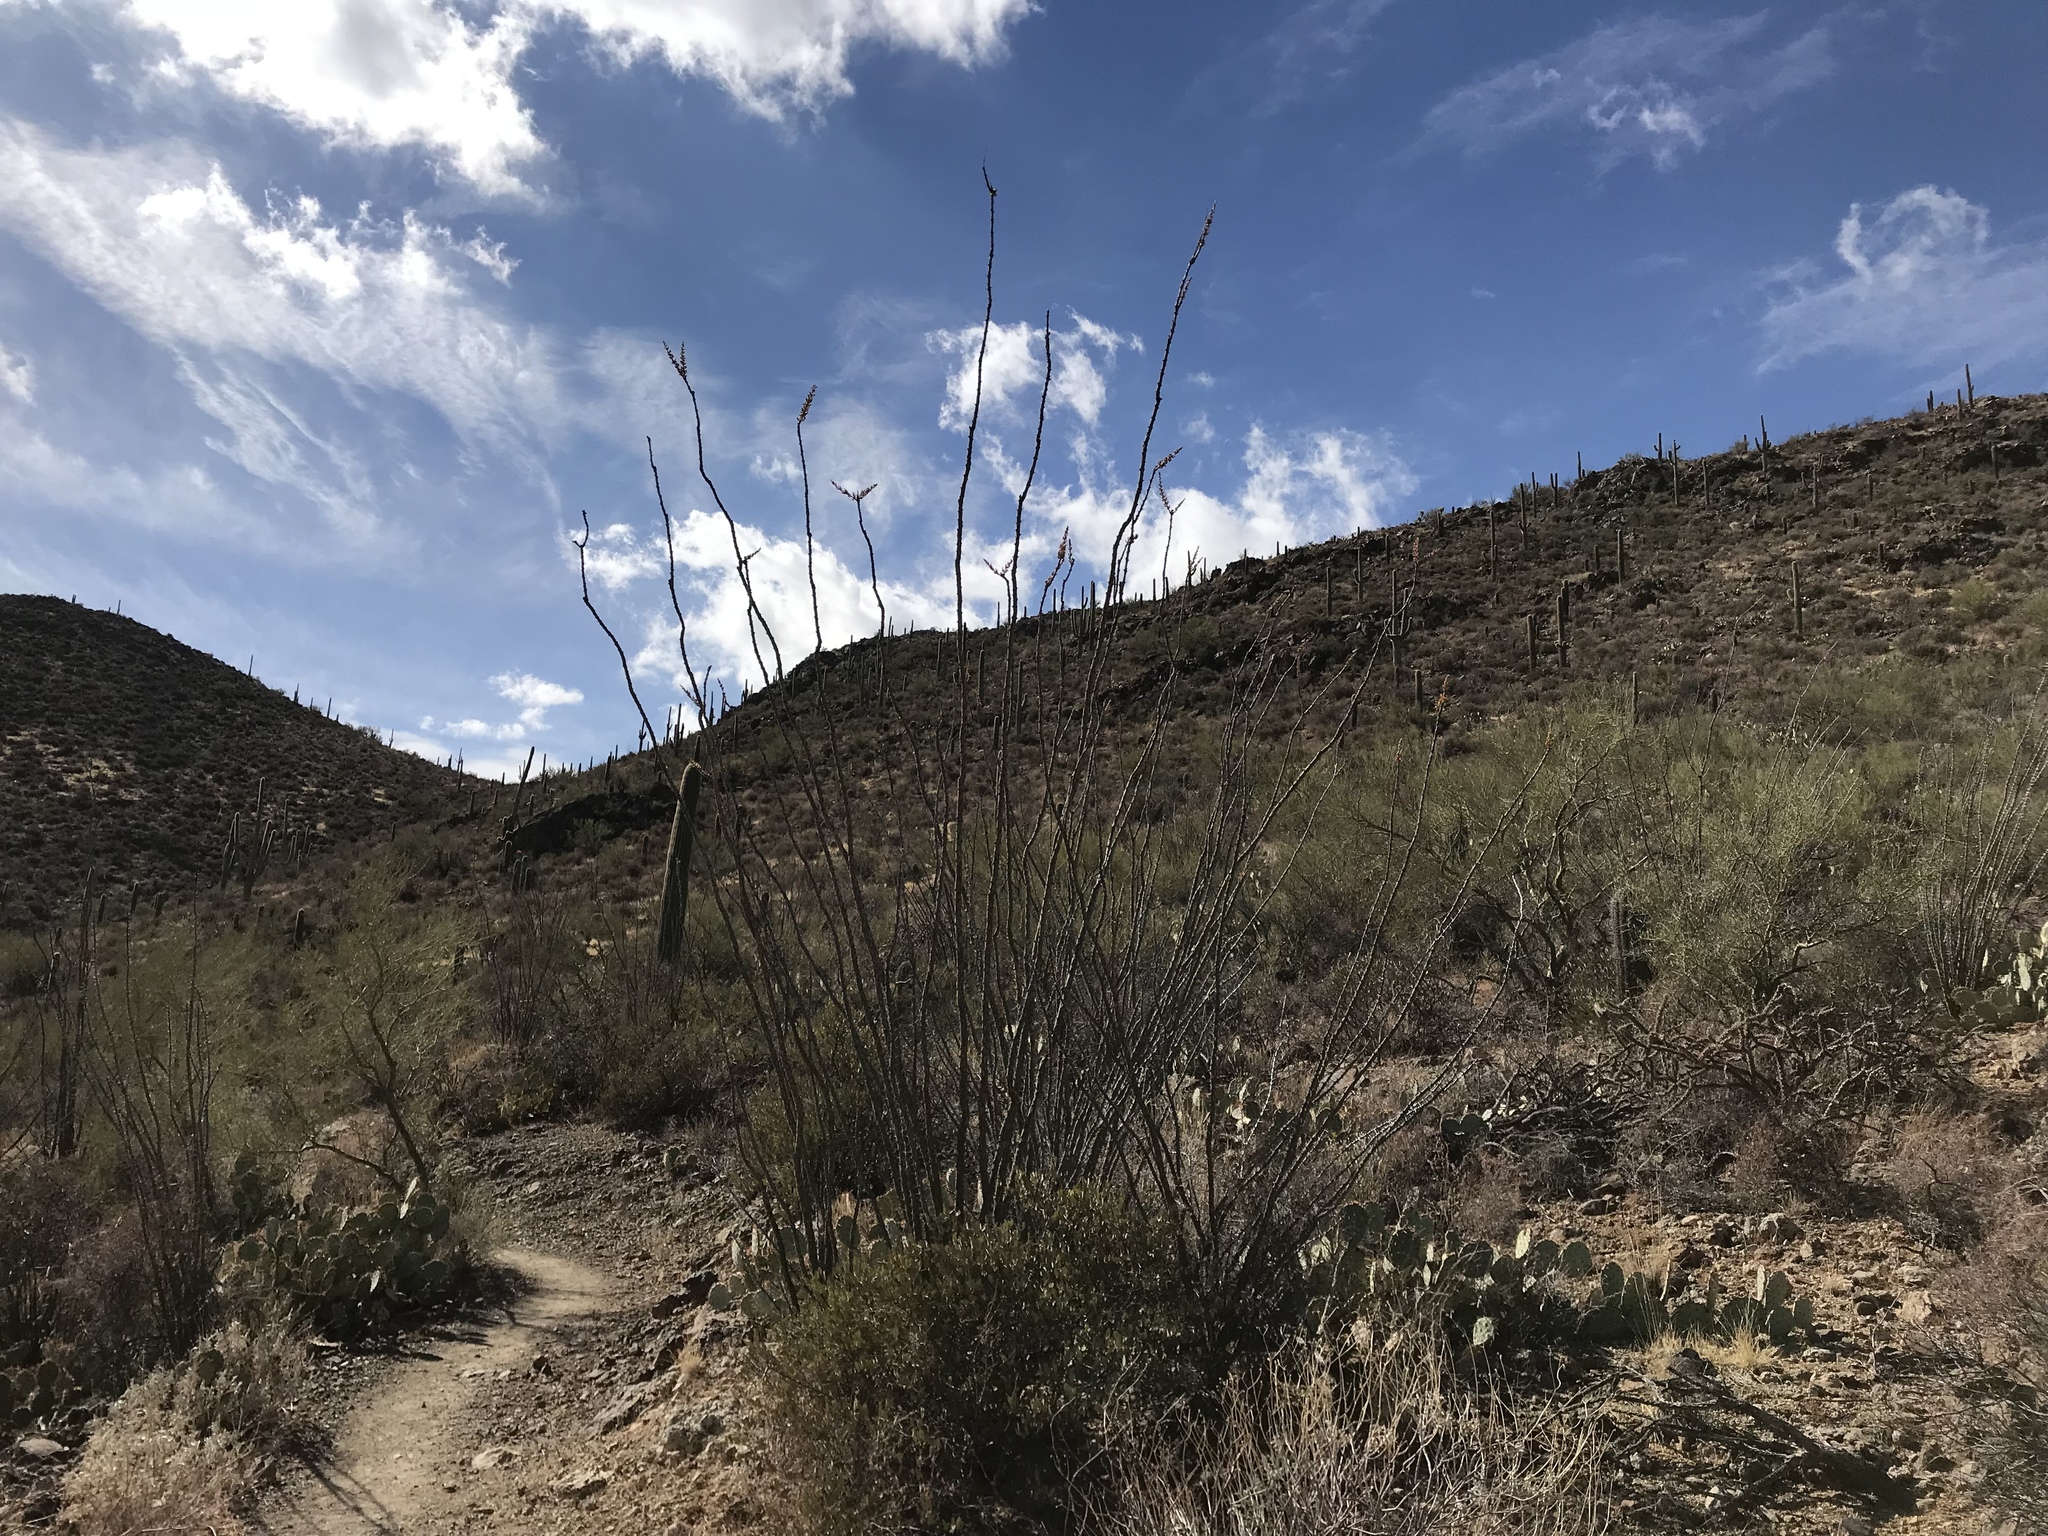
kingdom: Plantae
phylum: Tracheophyta
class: Magnoliopsida
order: Ericales
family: Fouquieriaceae
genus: Fouquieria
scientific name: Fouquieria splendens
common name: Vine-cactus
